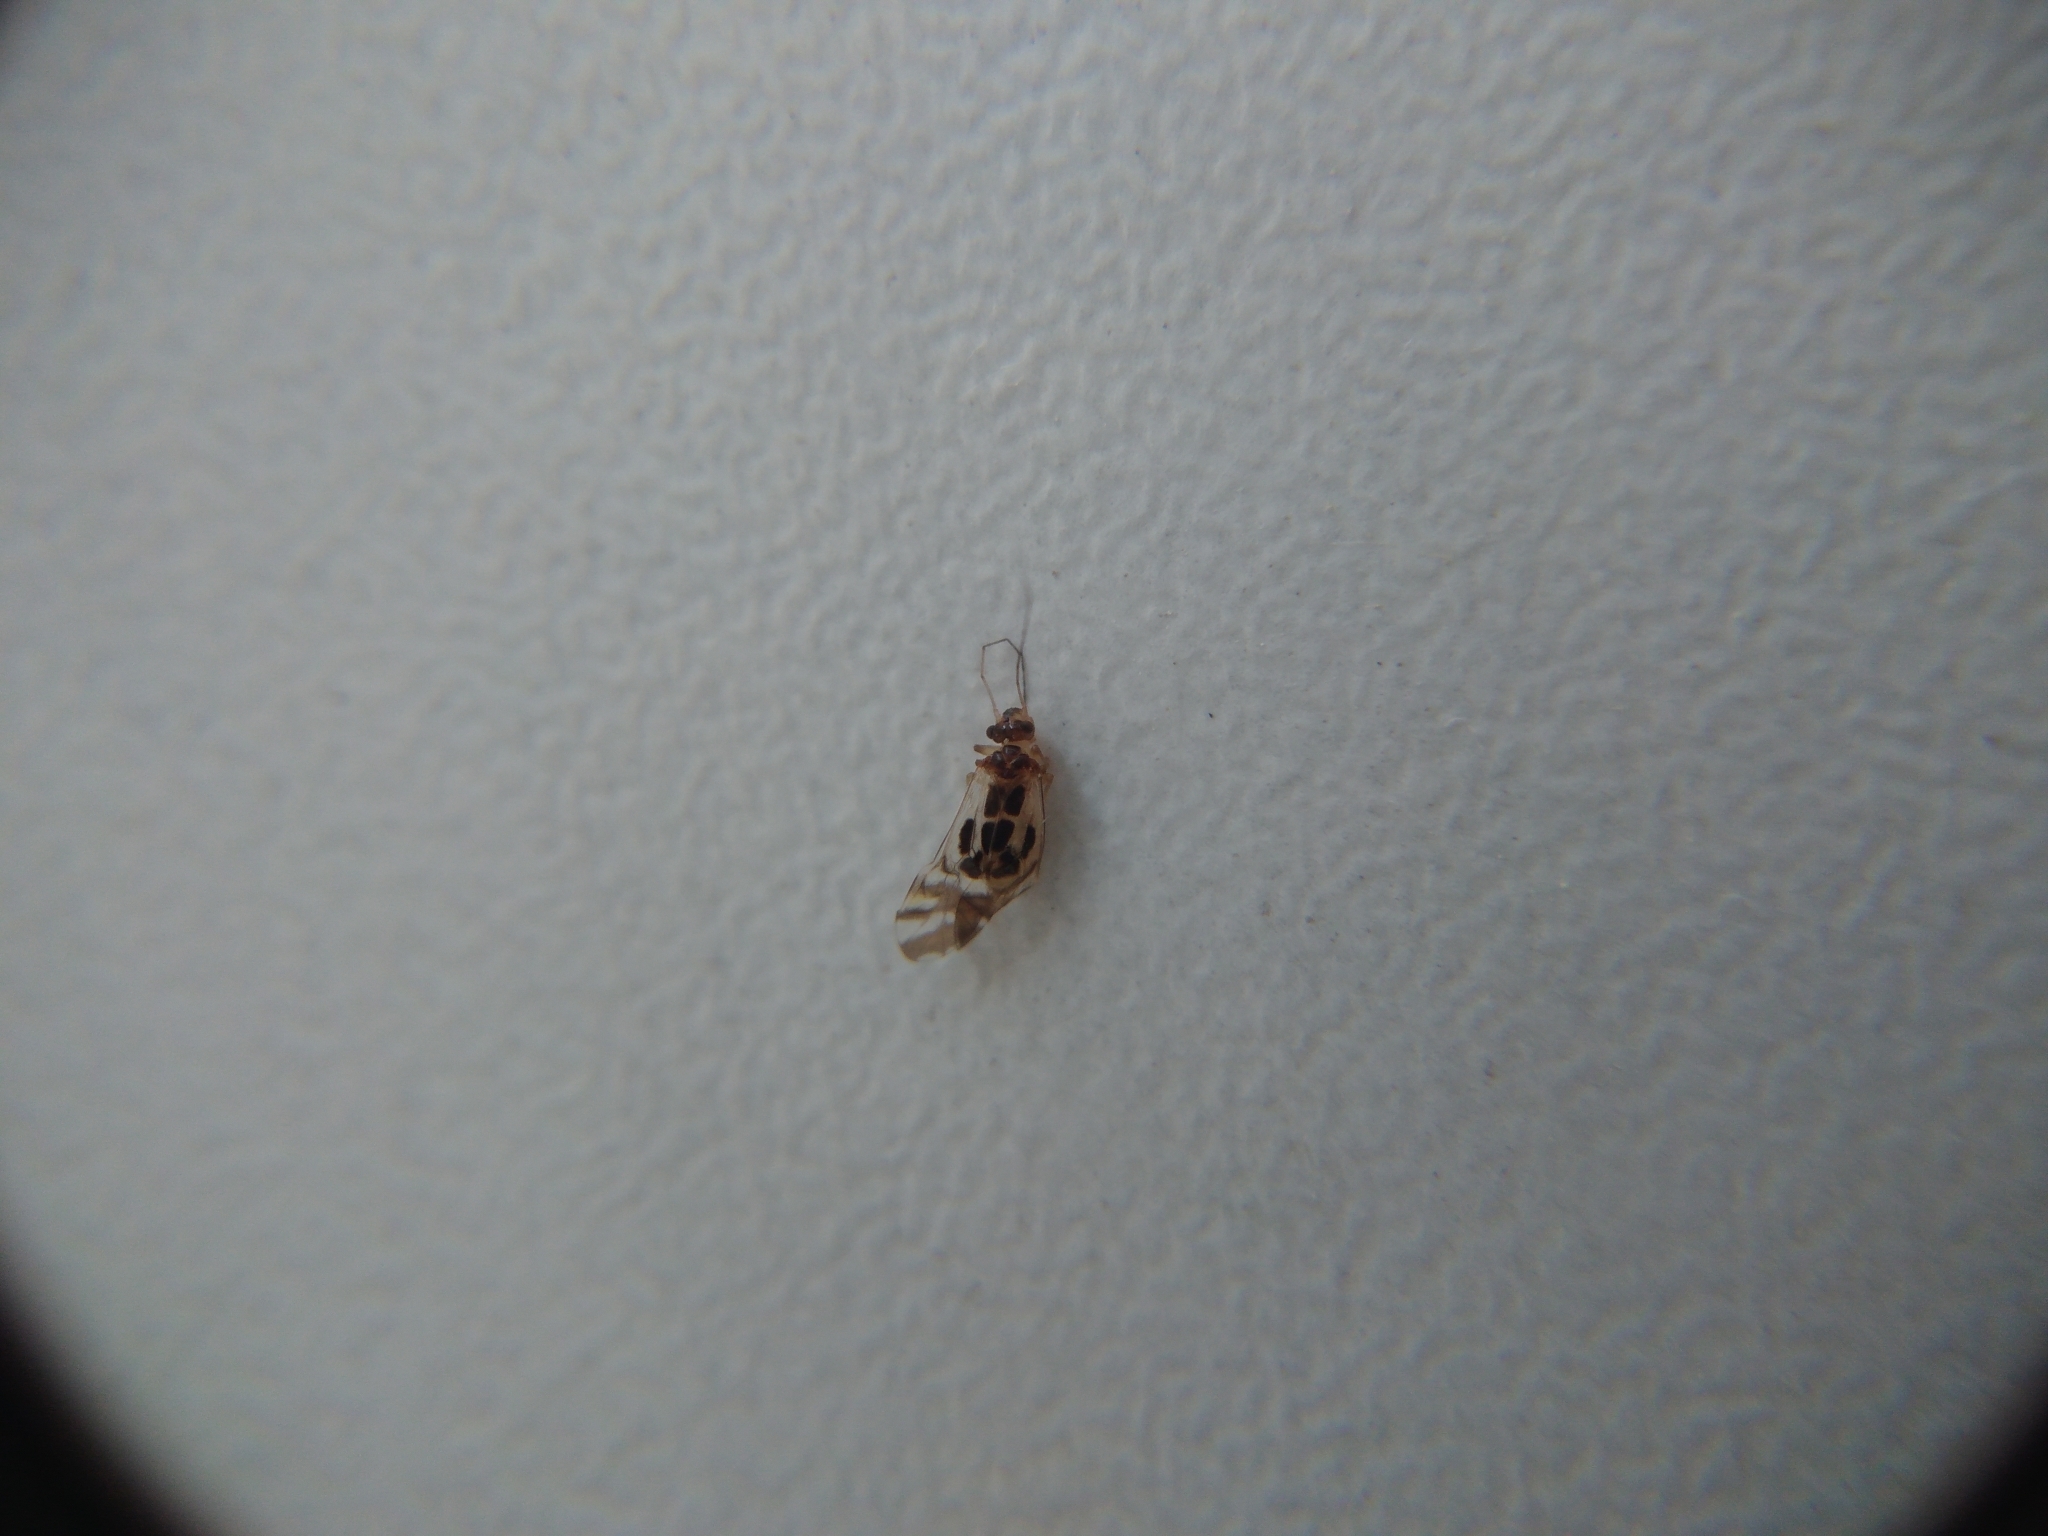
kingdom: Animalia
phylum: Arthropoda
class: Insecta
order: Psocodea
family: Stenopsocidae
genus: Graphopsocus
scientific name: Graphopsocus cruciatus
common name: Lizard bark louse
